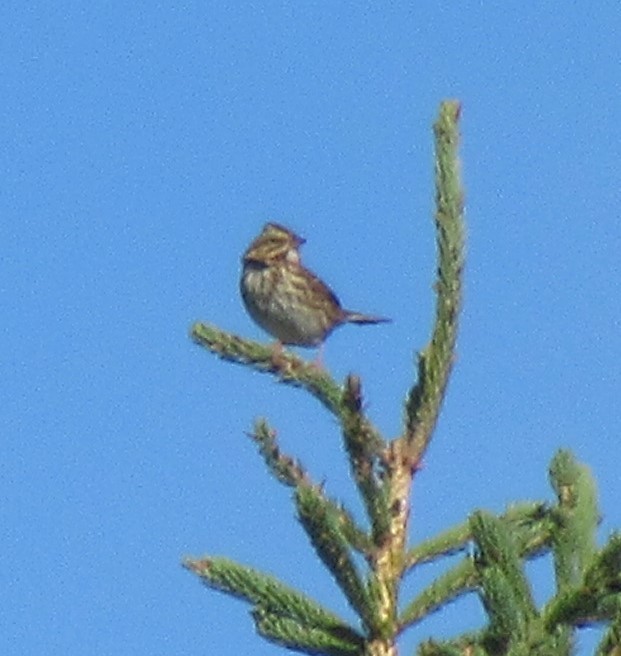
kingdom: Animalia
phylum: Chordata
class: Aves
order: Passeriformes
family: Passerellidae
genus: Passerculus
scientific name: Passerculus sandwichensis
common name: Savannah sparrow
